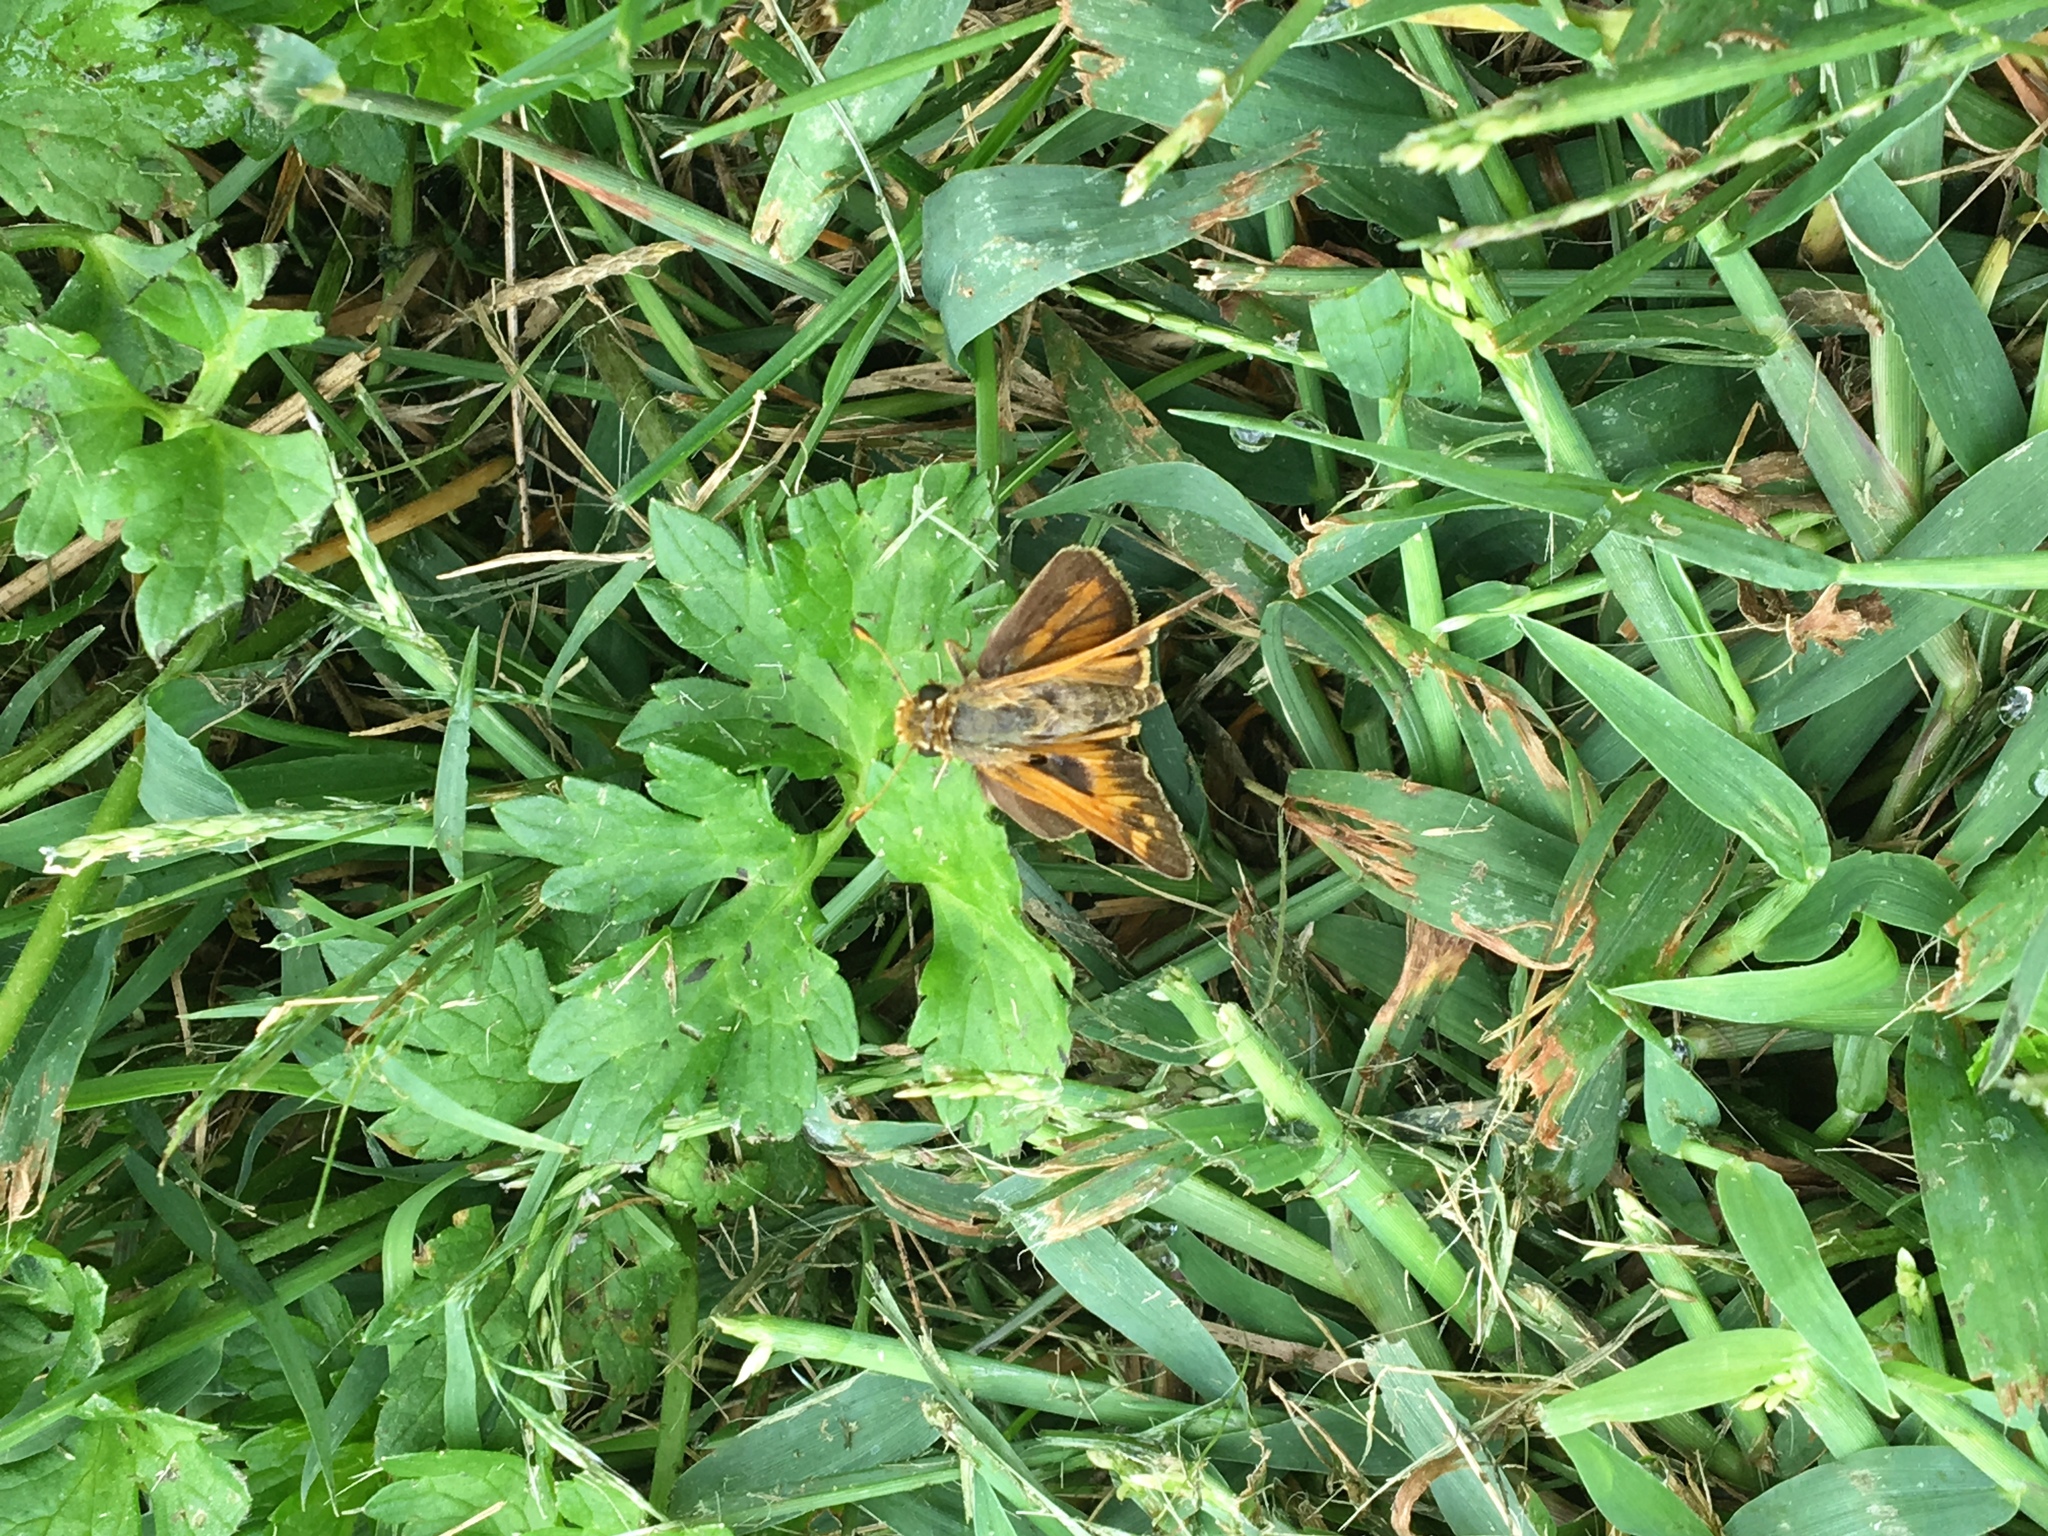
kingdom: Animalia
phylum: Arthropoda
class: Insecta
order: Lepidoptera
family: Hesperiidae
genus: Atalopedes
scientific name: Atalopedes
